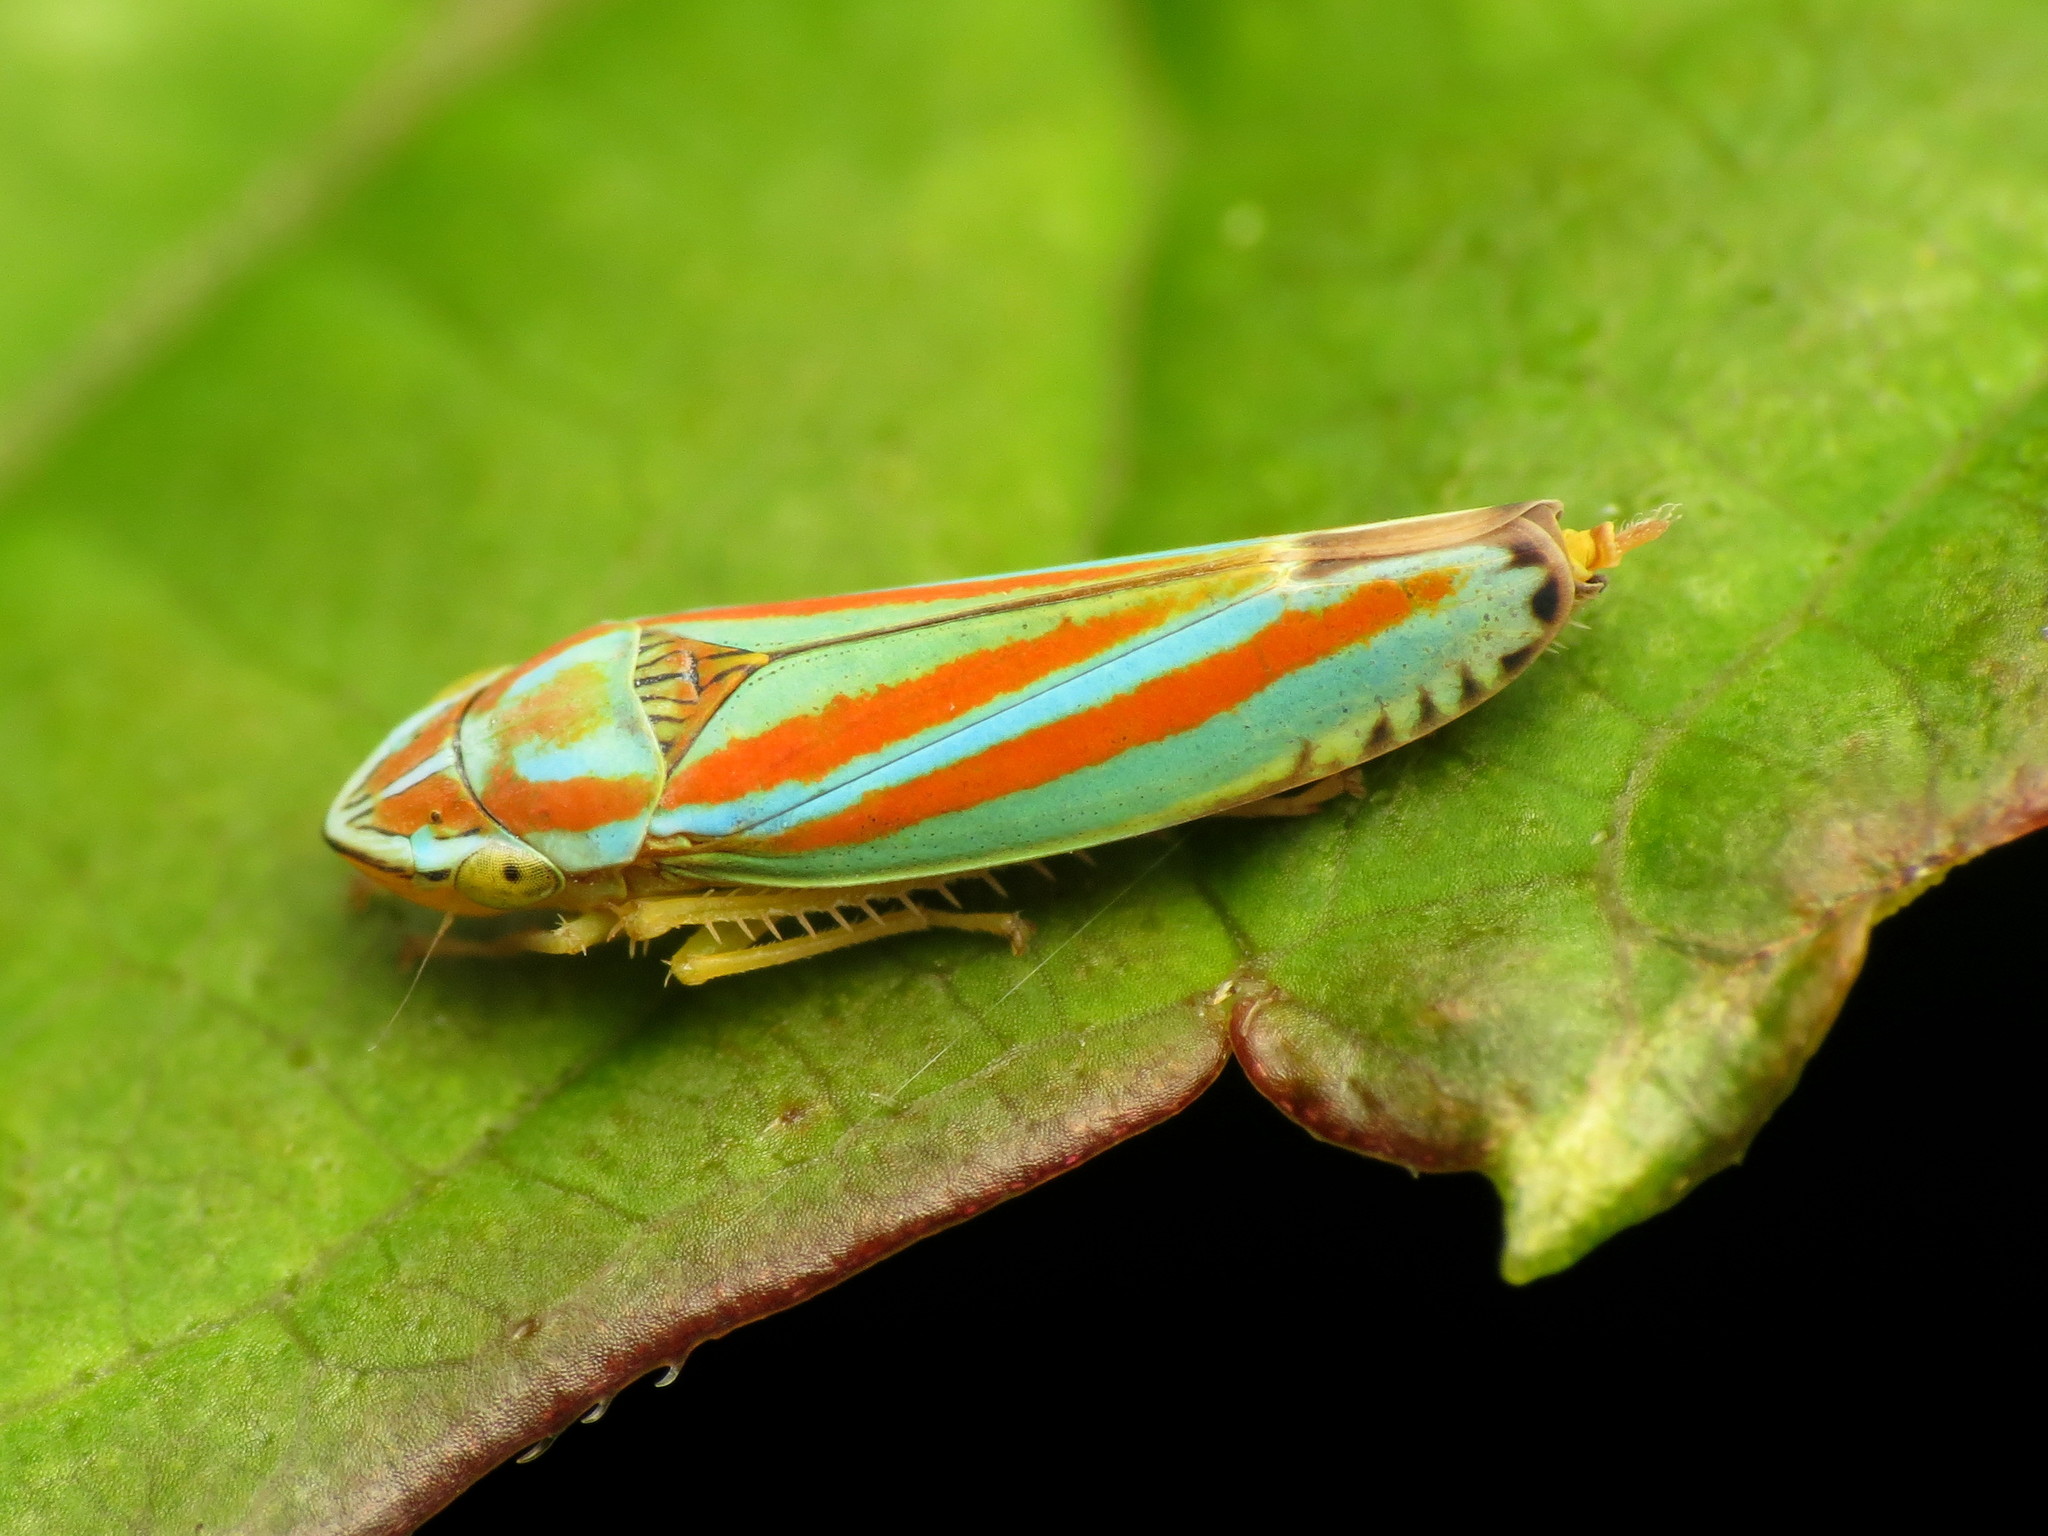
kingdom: Animalia
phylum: Arthropoda
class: Insecta
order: Hemiptera
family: Cicadellidae
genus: Graphocephala
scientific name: Graphocephala versuta
